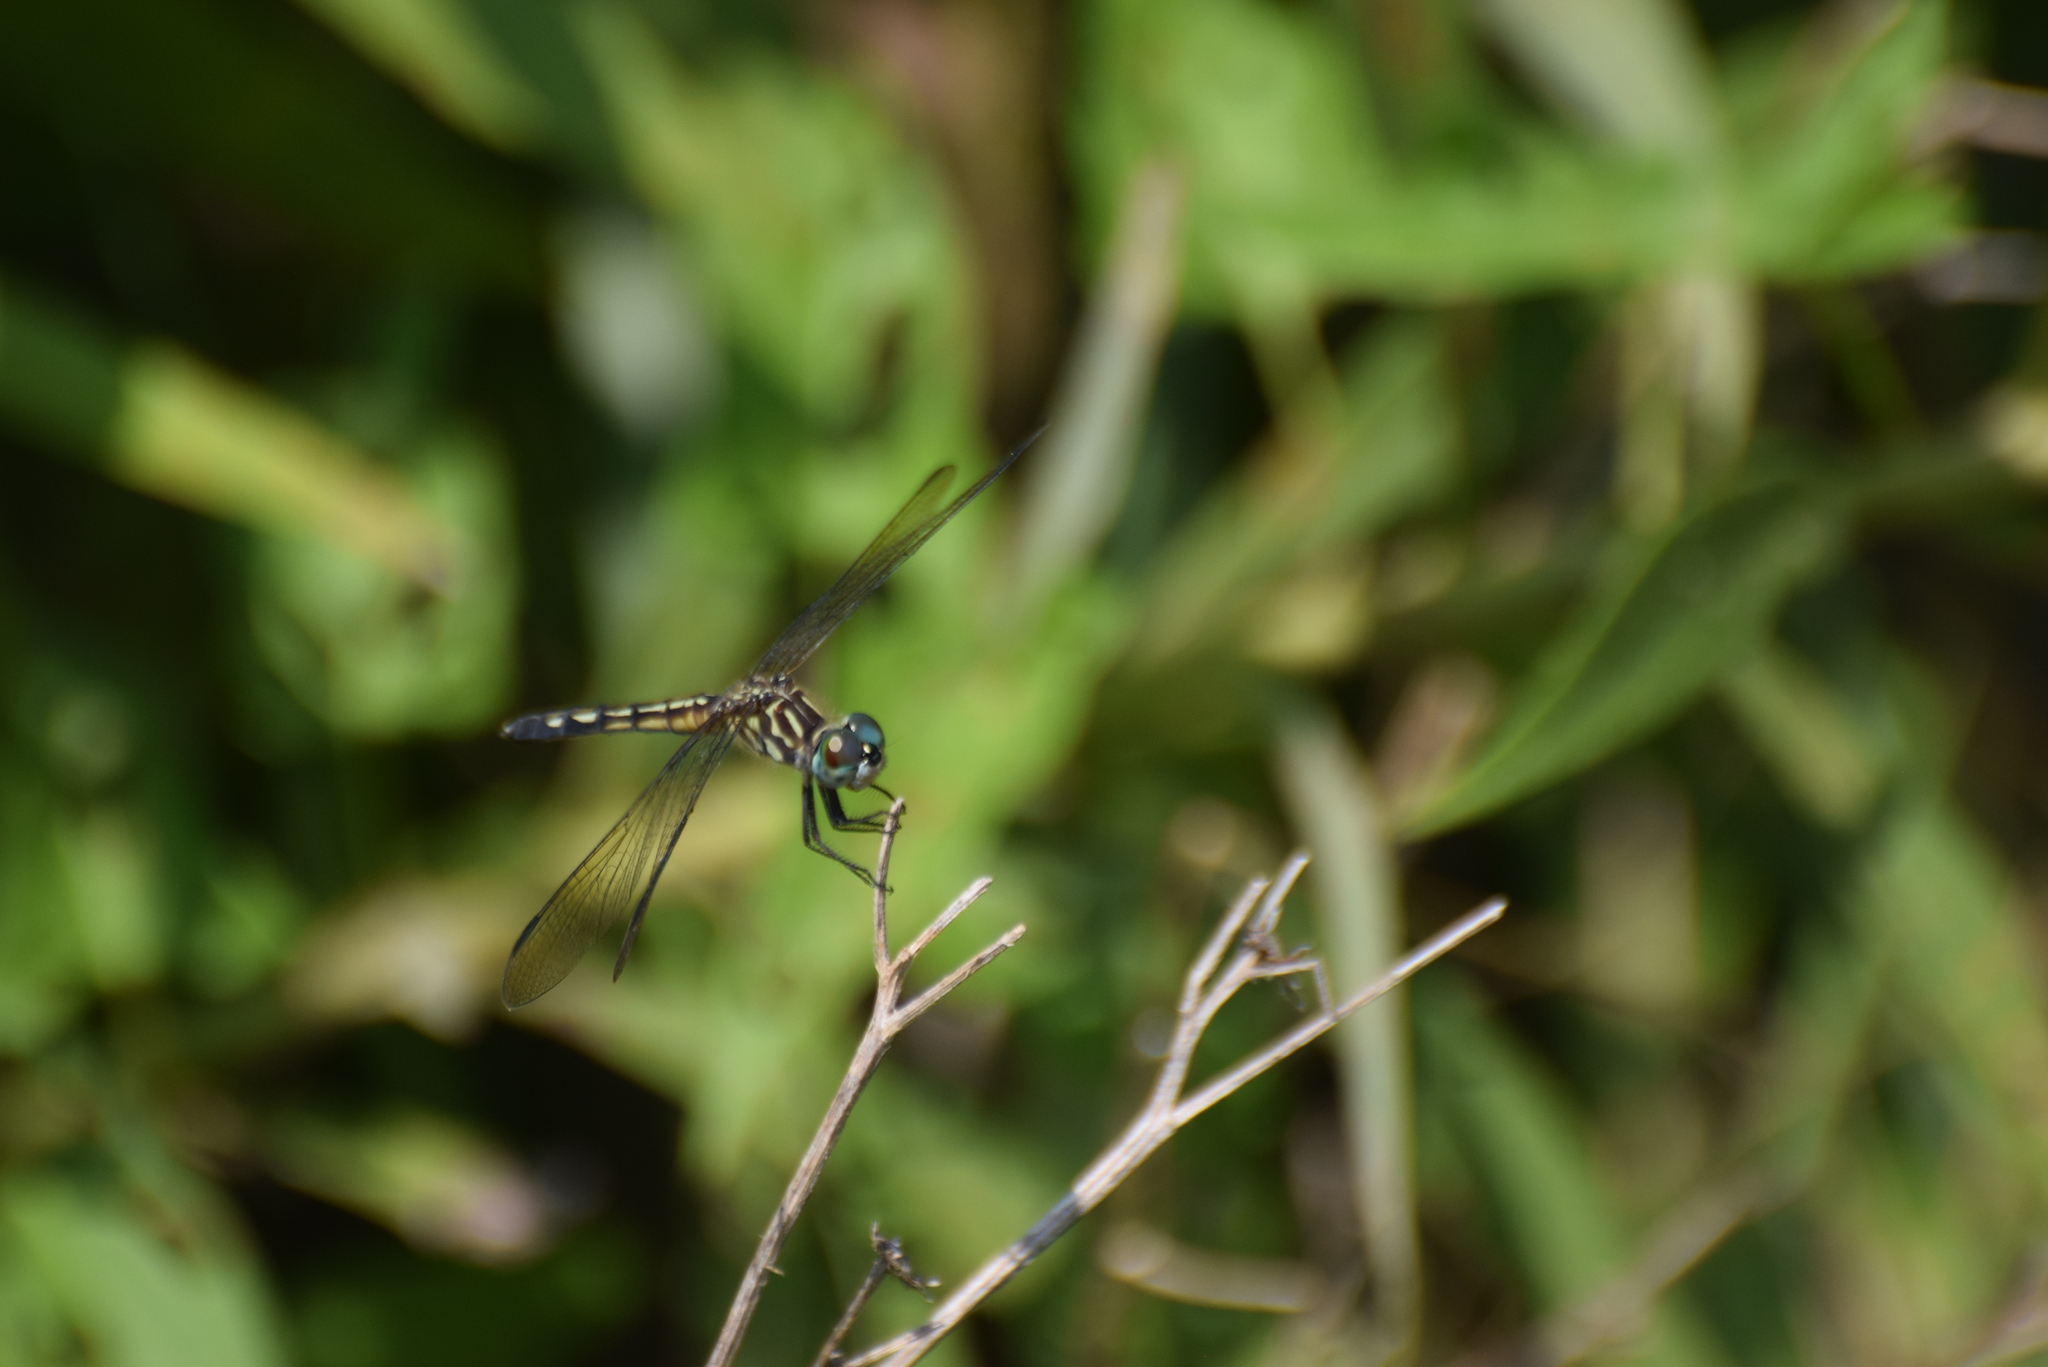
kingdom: Animalia
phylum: Arthropoda
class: Insecta
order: Odonata
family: Libellulidae
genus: Pachydiplax
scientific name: Pachydiplax longipennis
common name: Blue dasher
